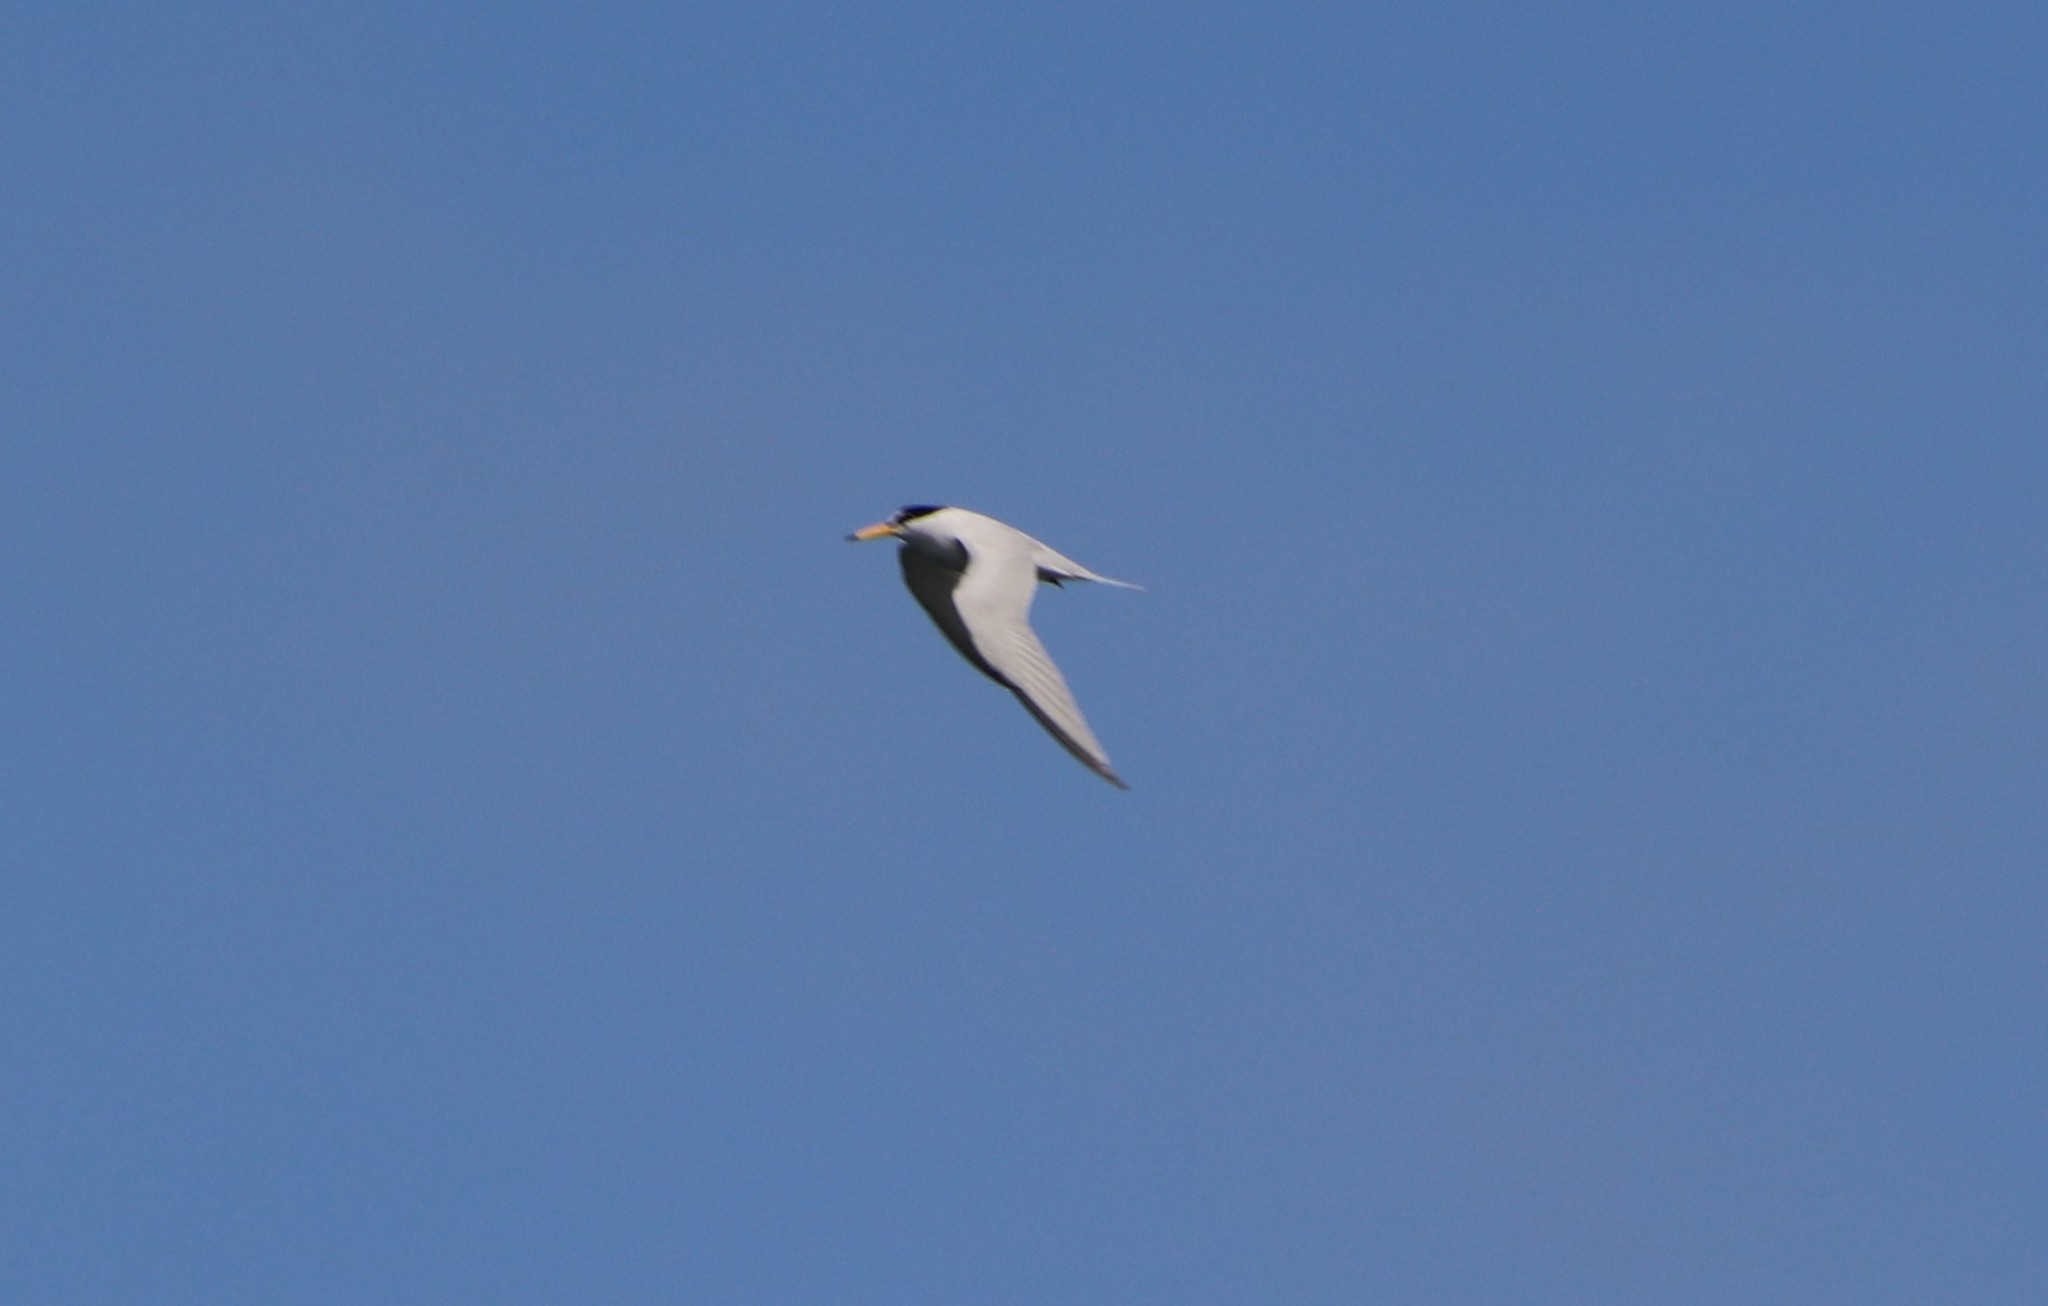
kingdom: Animalia
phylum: Chordata
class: Aves
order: Charadriiformes
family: Laridae
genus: Sternula
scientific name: Sternula antillarum
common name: Least tern
